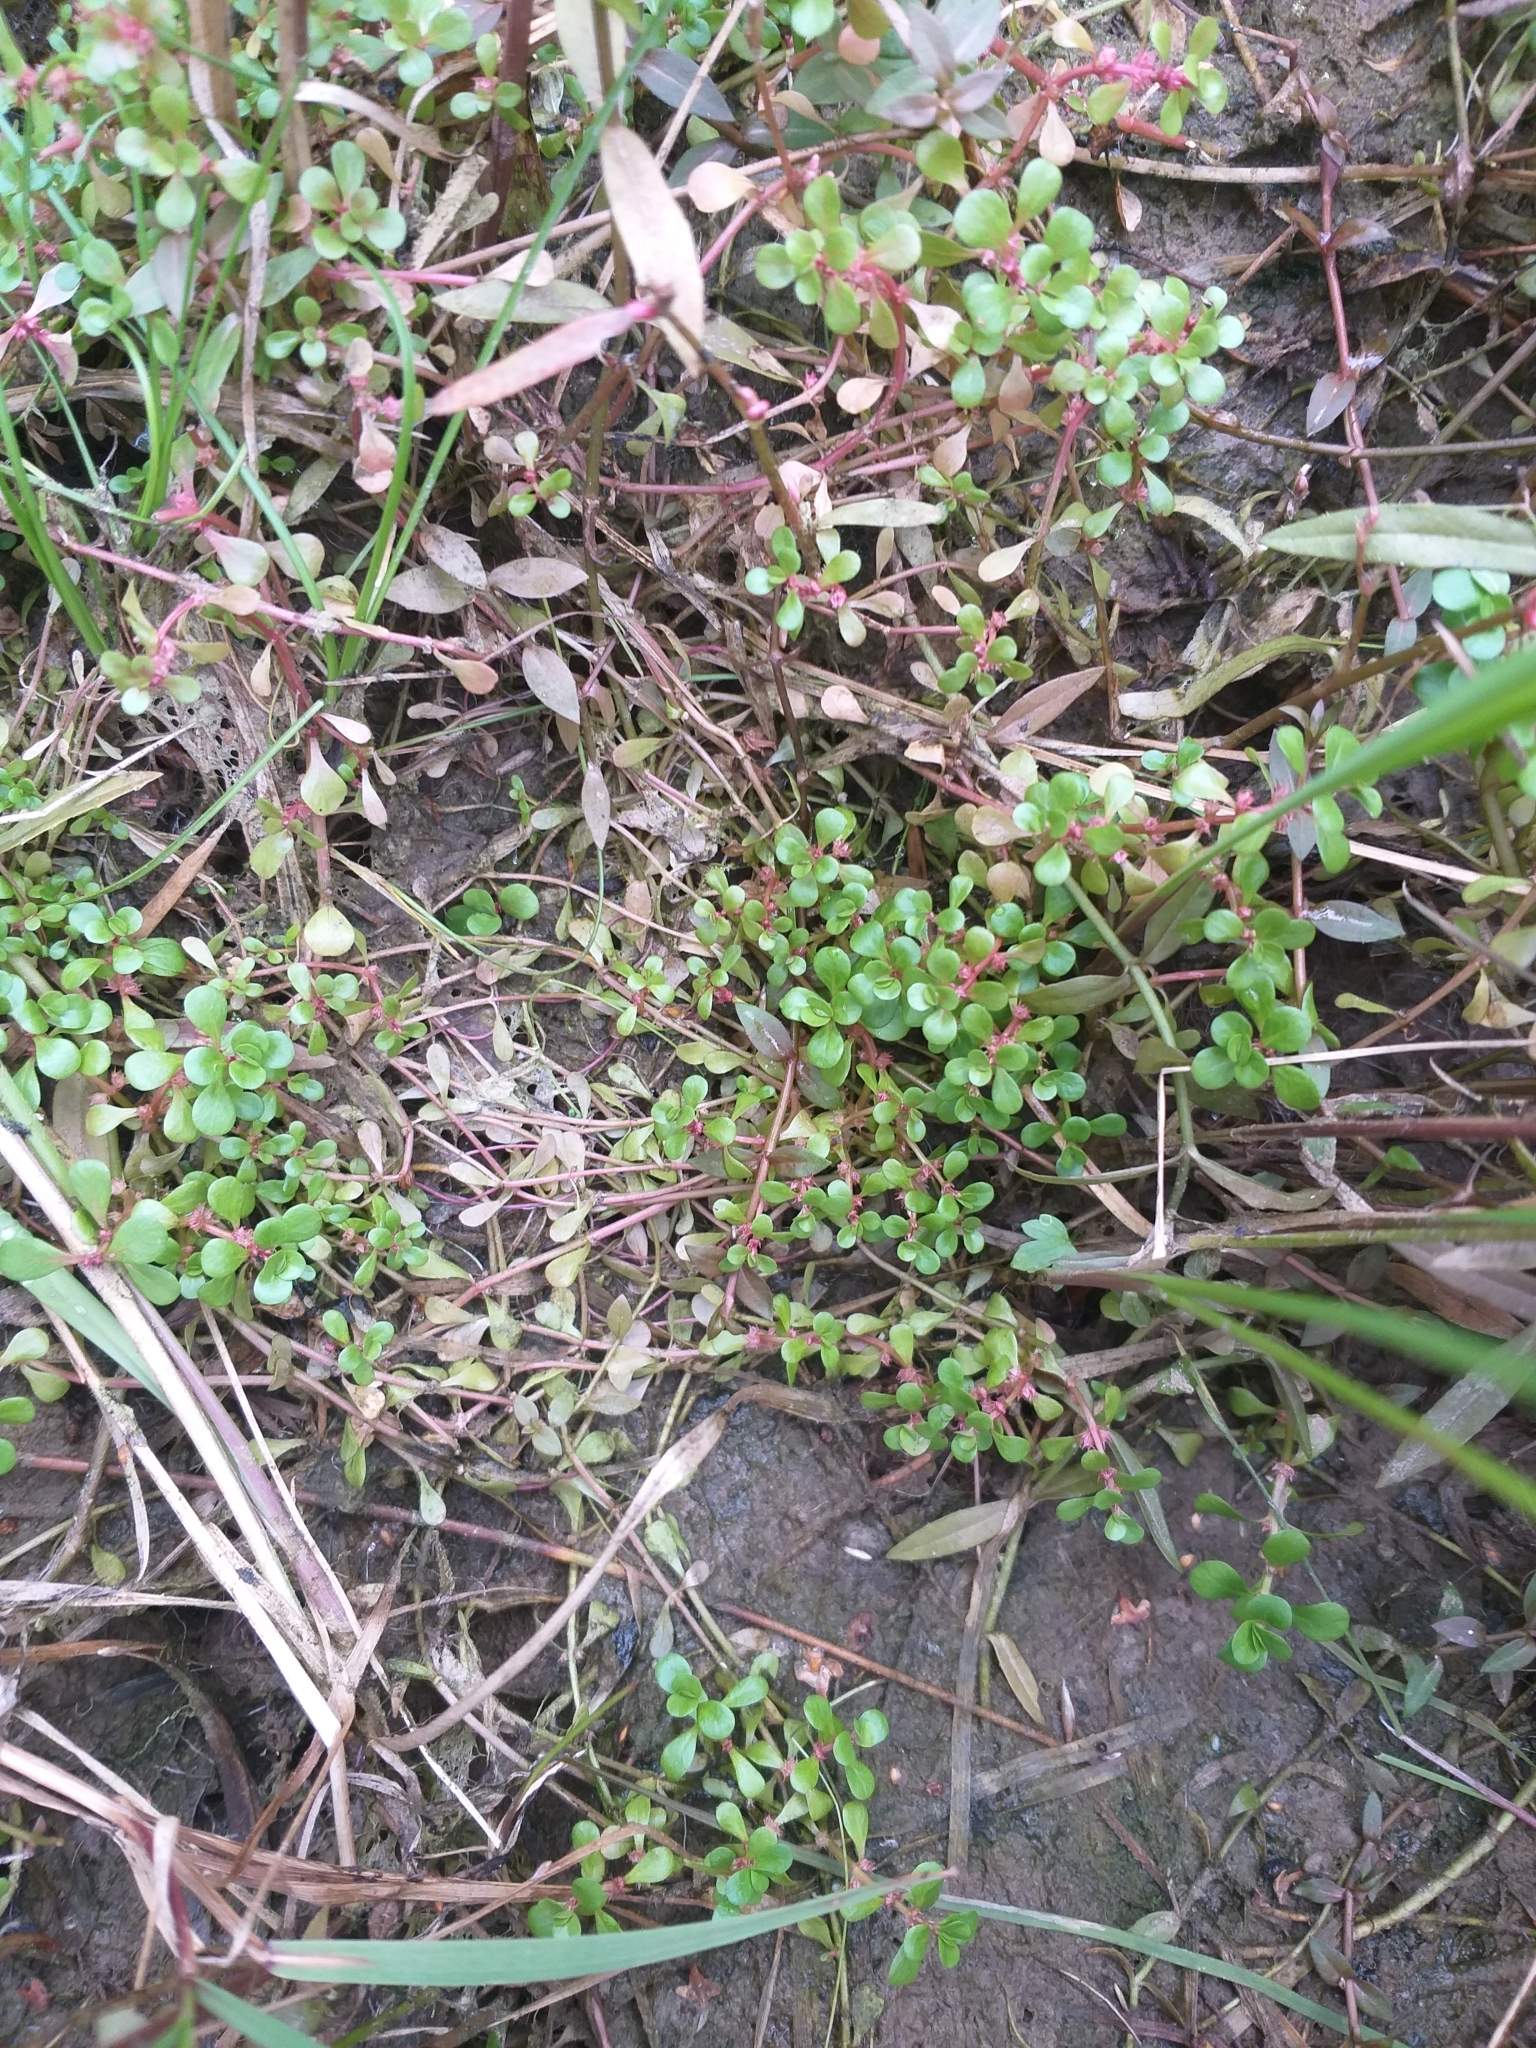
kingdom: Plantae
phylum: Tracheophyta
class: Magnoliopsida
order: Myrtales
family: Lythraceae
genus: Lythrum
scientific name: Lythrum portula
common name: Water purslane
